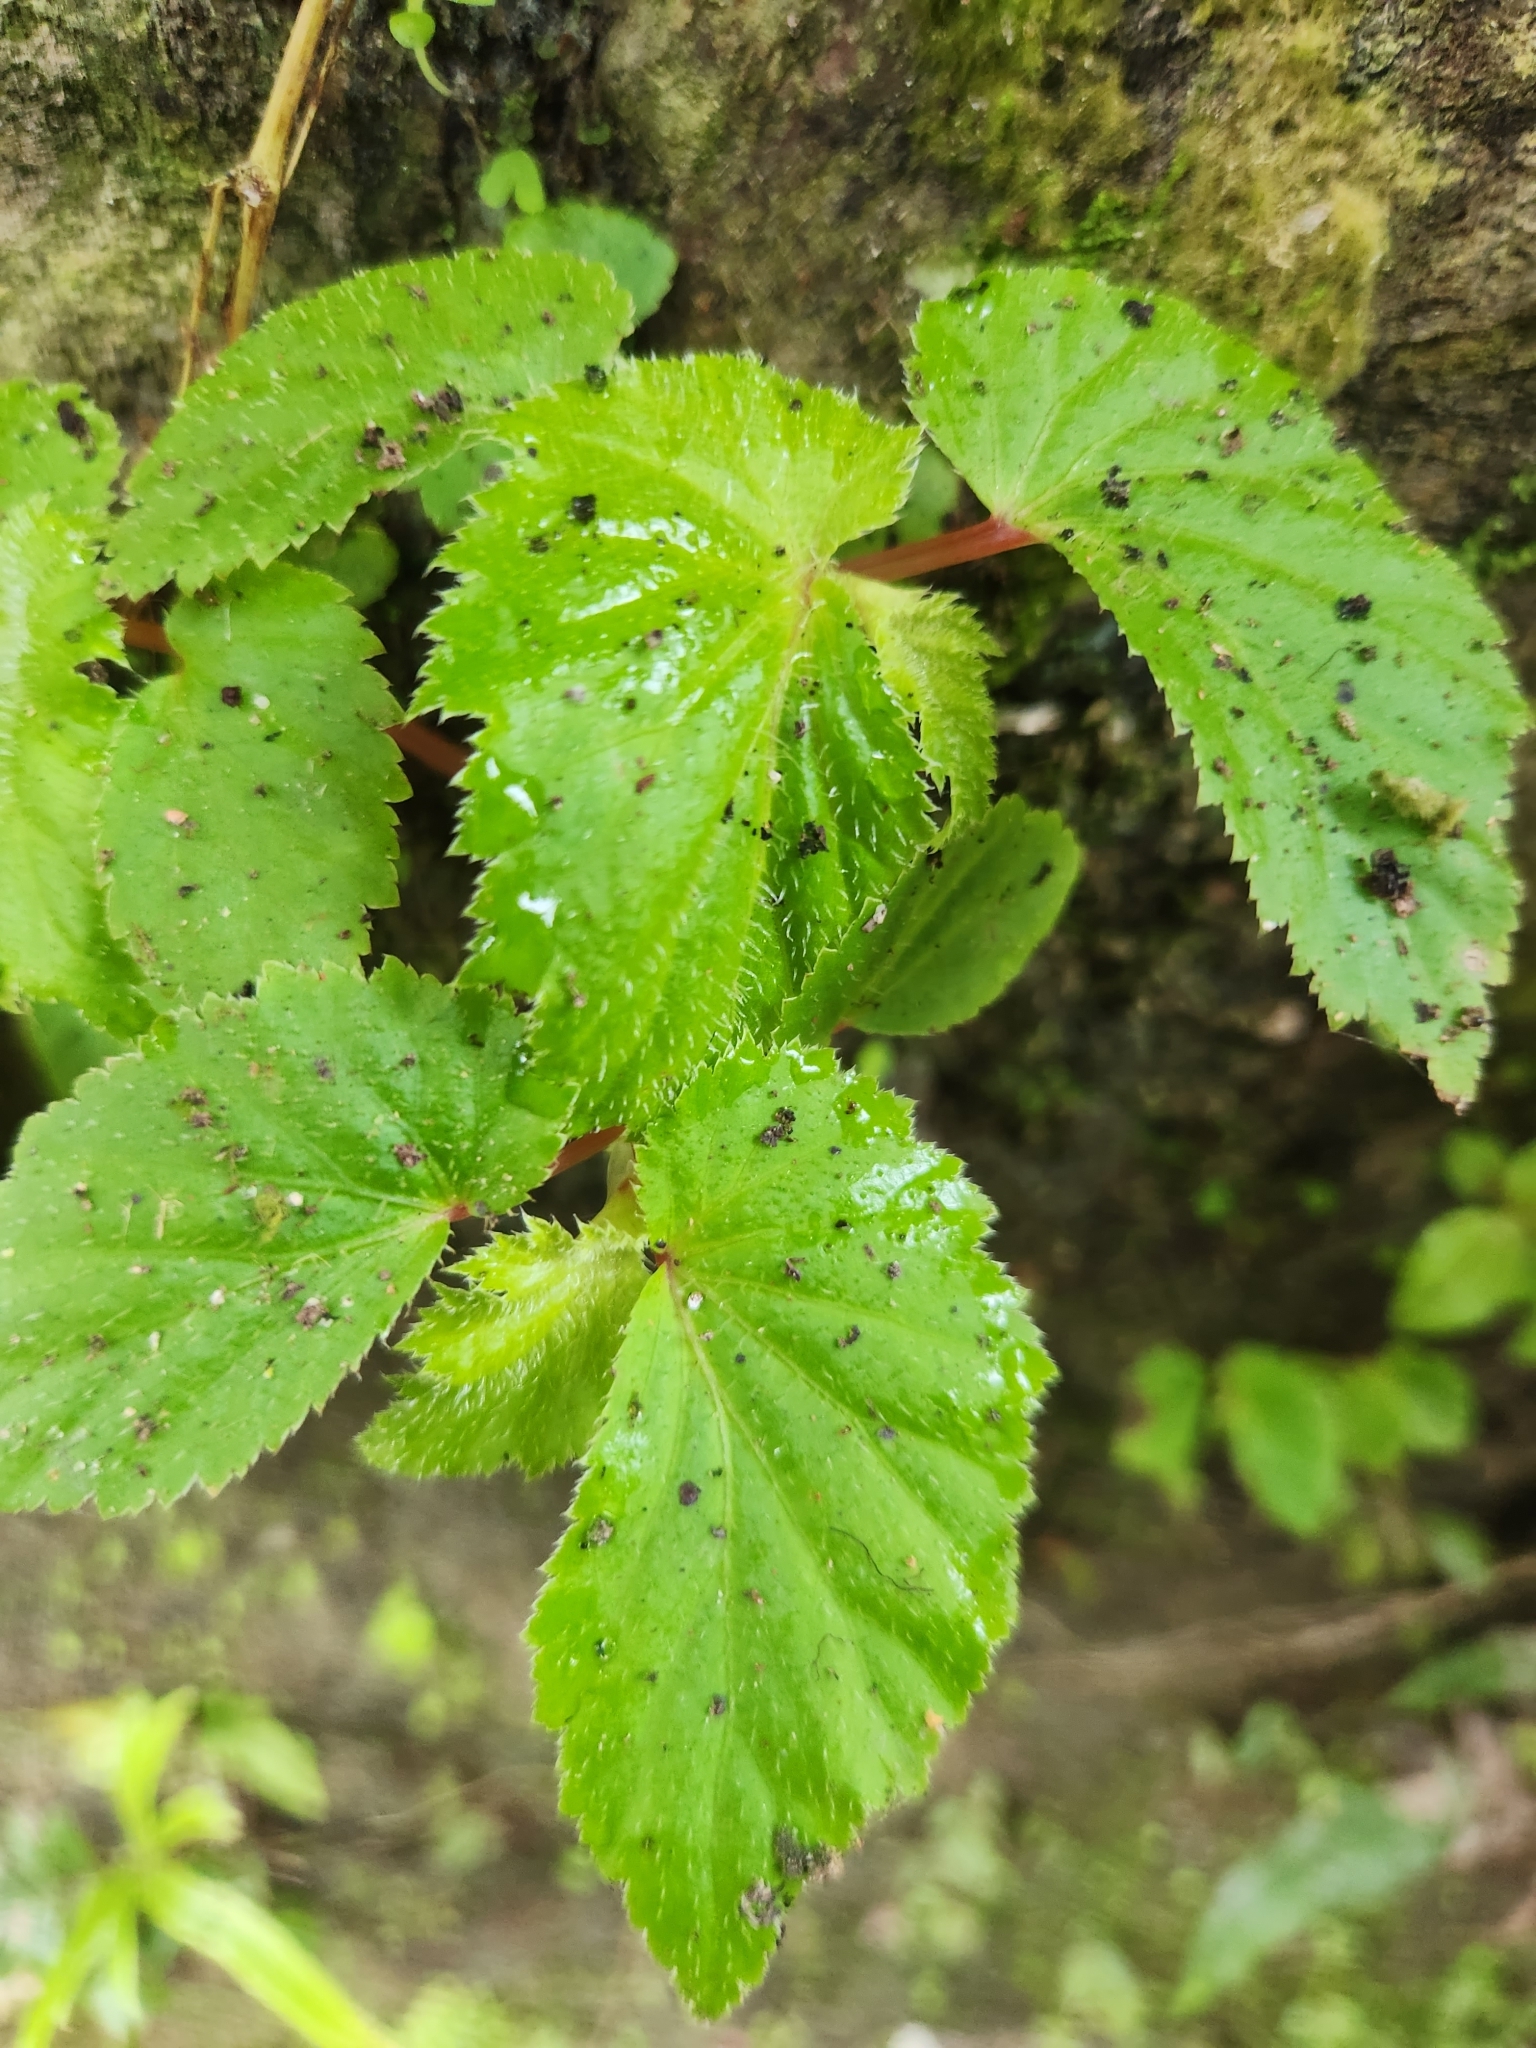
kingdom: Plantae
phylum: Tracheophyta
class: Magnoliopsida
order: Cucurbitales
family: Begoniaceae
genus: Begonia
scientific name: Begonia hirsuta
